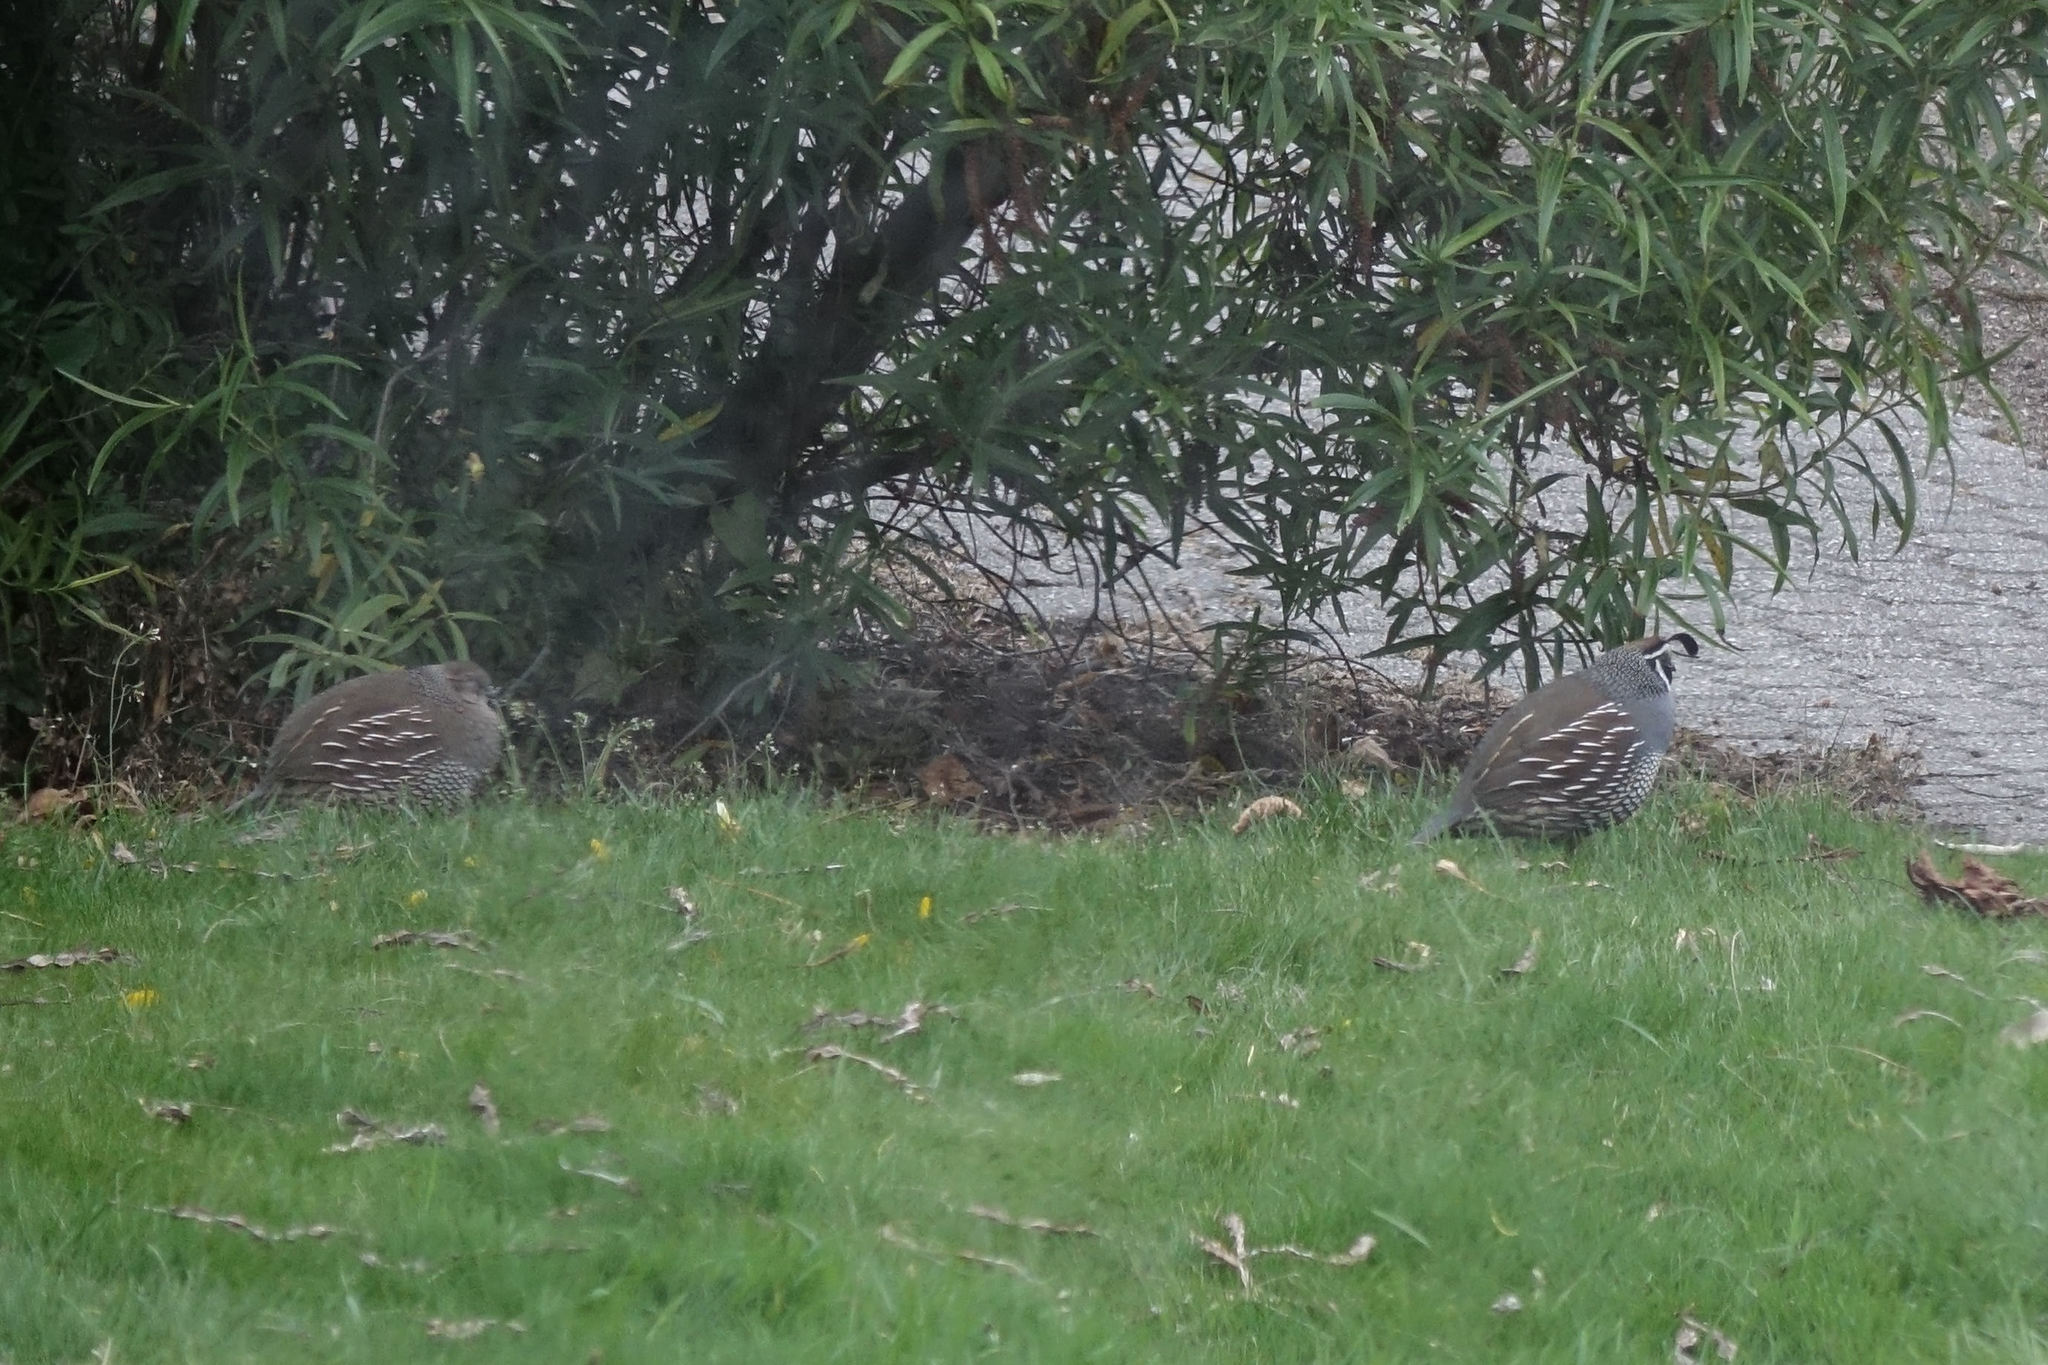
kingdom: Animalia
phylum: Chordata
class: Aves
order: Galliformes
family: Odontophoridae
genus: Callipepla
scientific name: Callipepla californica
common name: California quail
